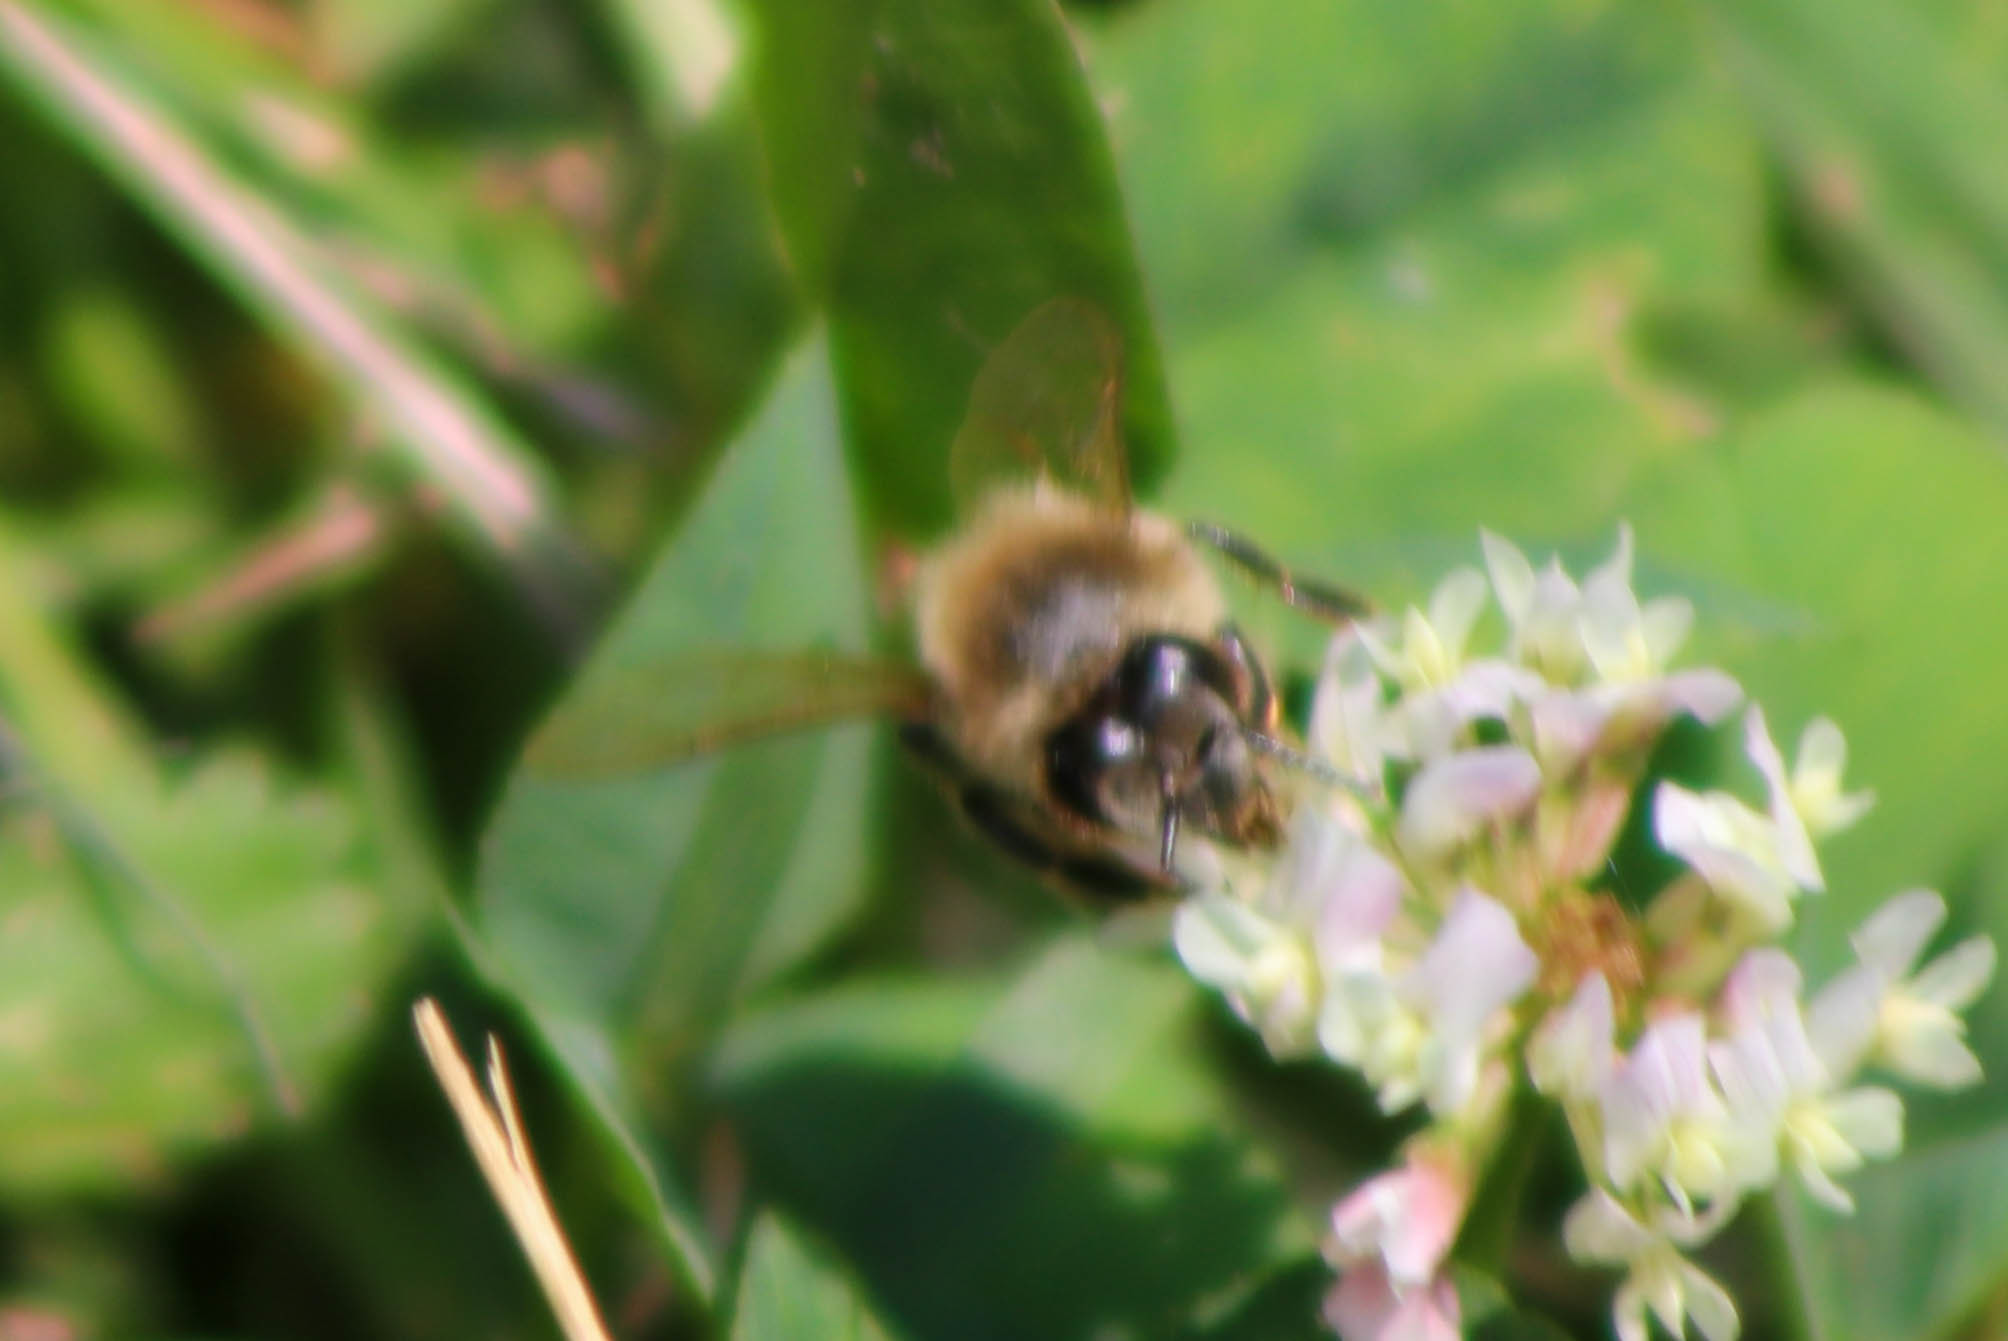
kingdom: Animalia
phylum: Arthropoda
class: Insecta
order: Hymenoptera
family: Apidae
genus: Apis
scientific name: Apis mellifera
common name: Honey bee
